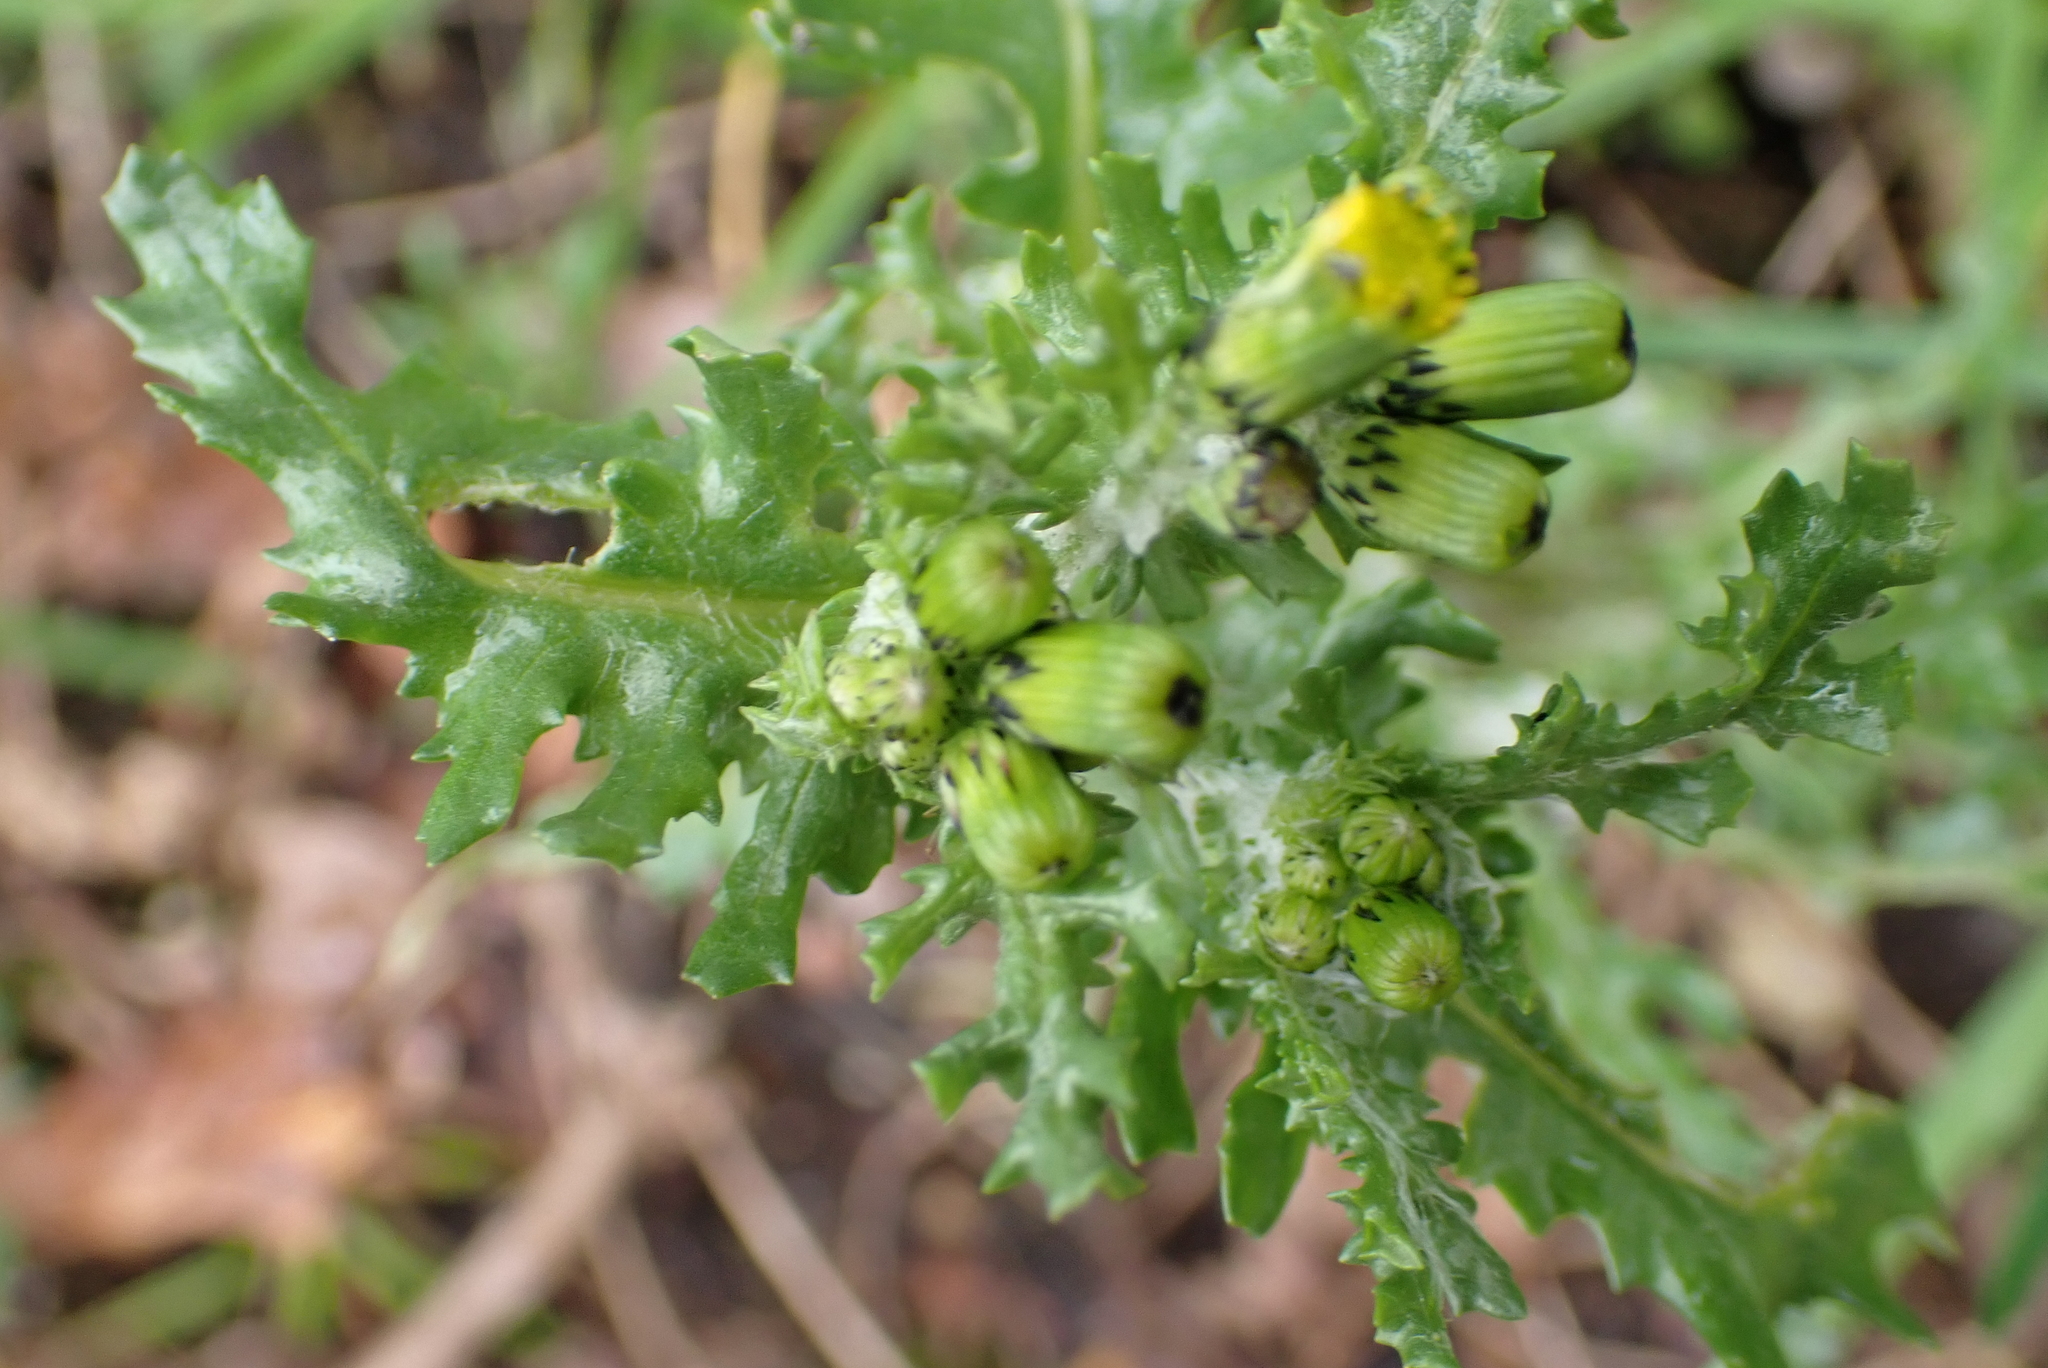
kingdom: Plantae
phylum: Tracheophyta
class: Magnoliopsida
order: Asterales
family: Asteraceae
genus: Senecio
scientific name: Senecio vulgaris
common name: Old-man-in-the-spring
